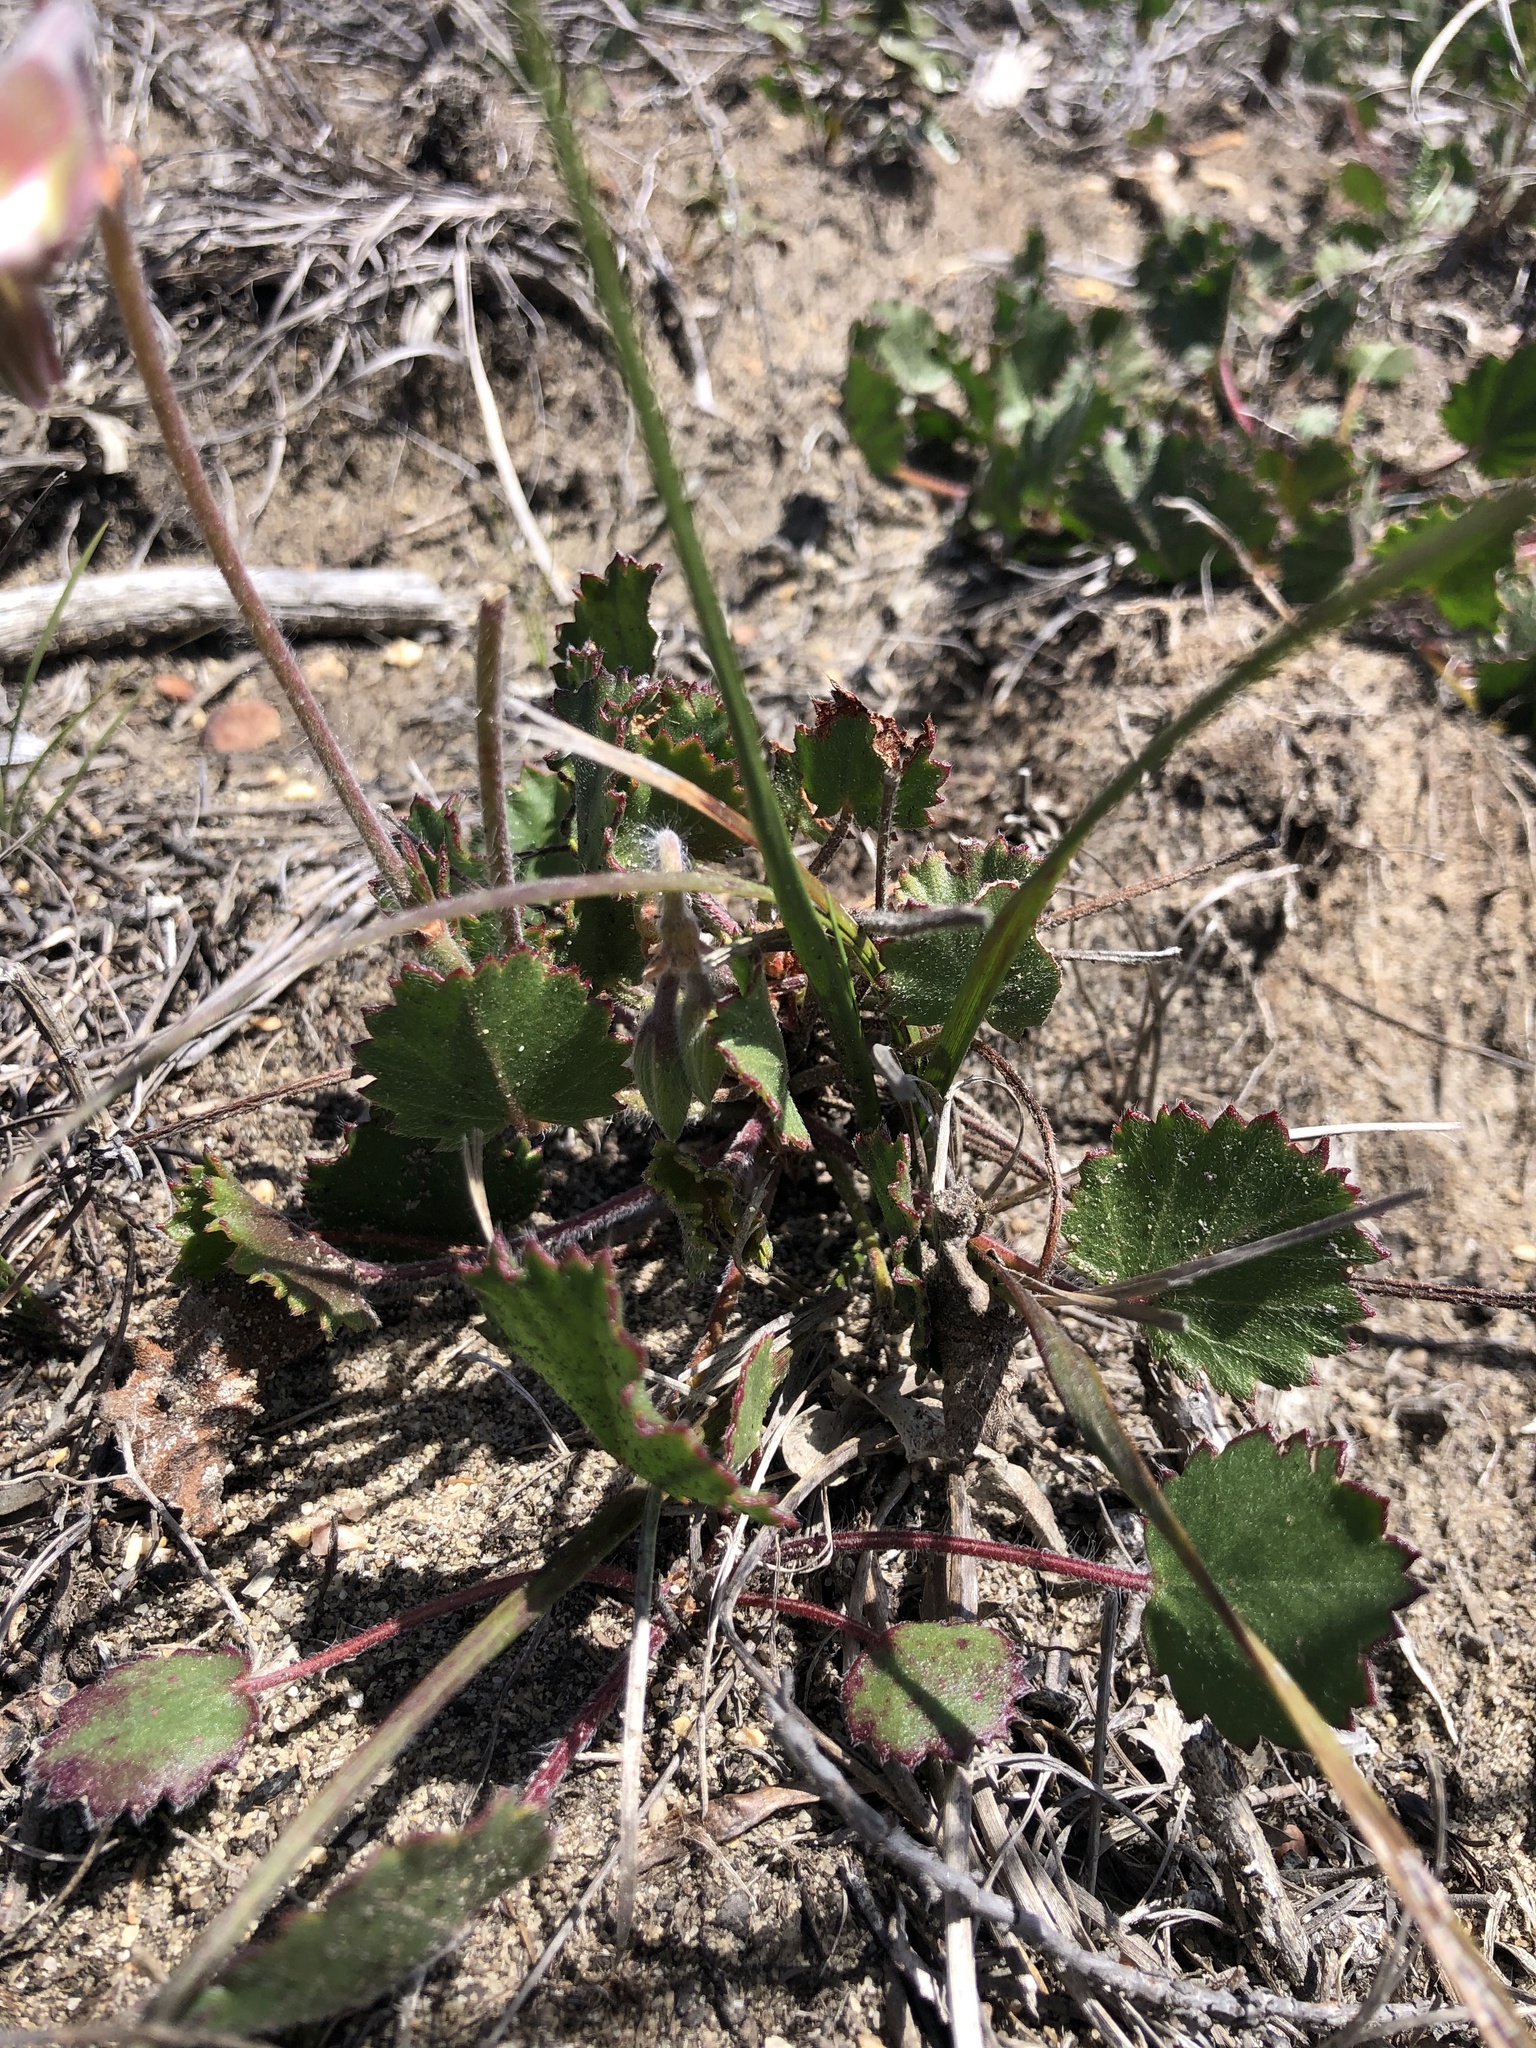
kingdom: Plantae
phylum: Tracheophyta
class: Magnoliopsida
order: Geraniales
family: Geraniaceae
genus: Pelargonium
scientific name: Pelargonium elegans
